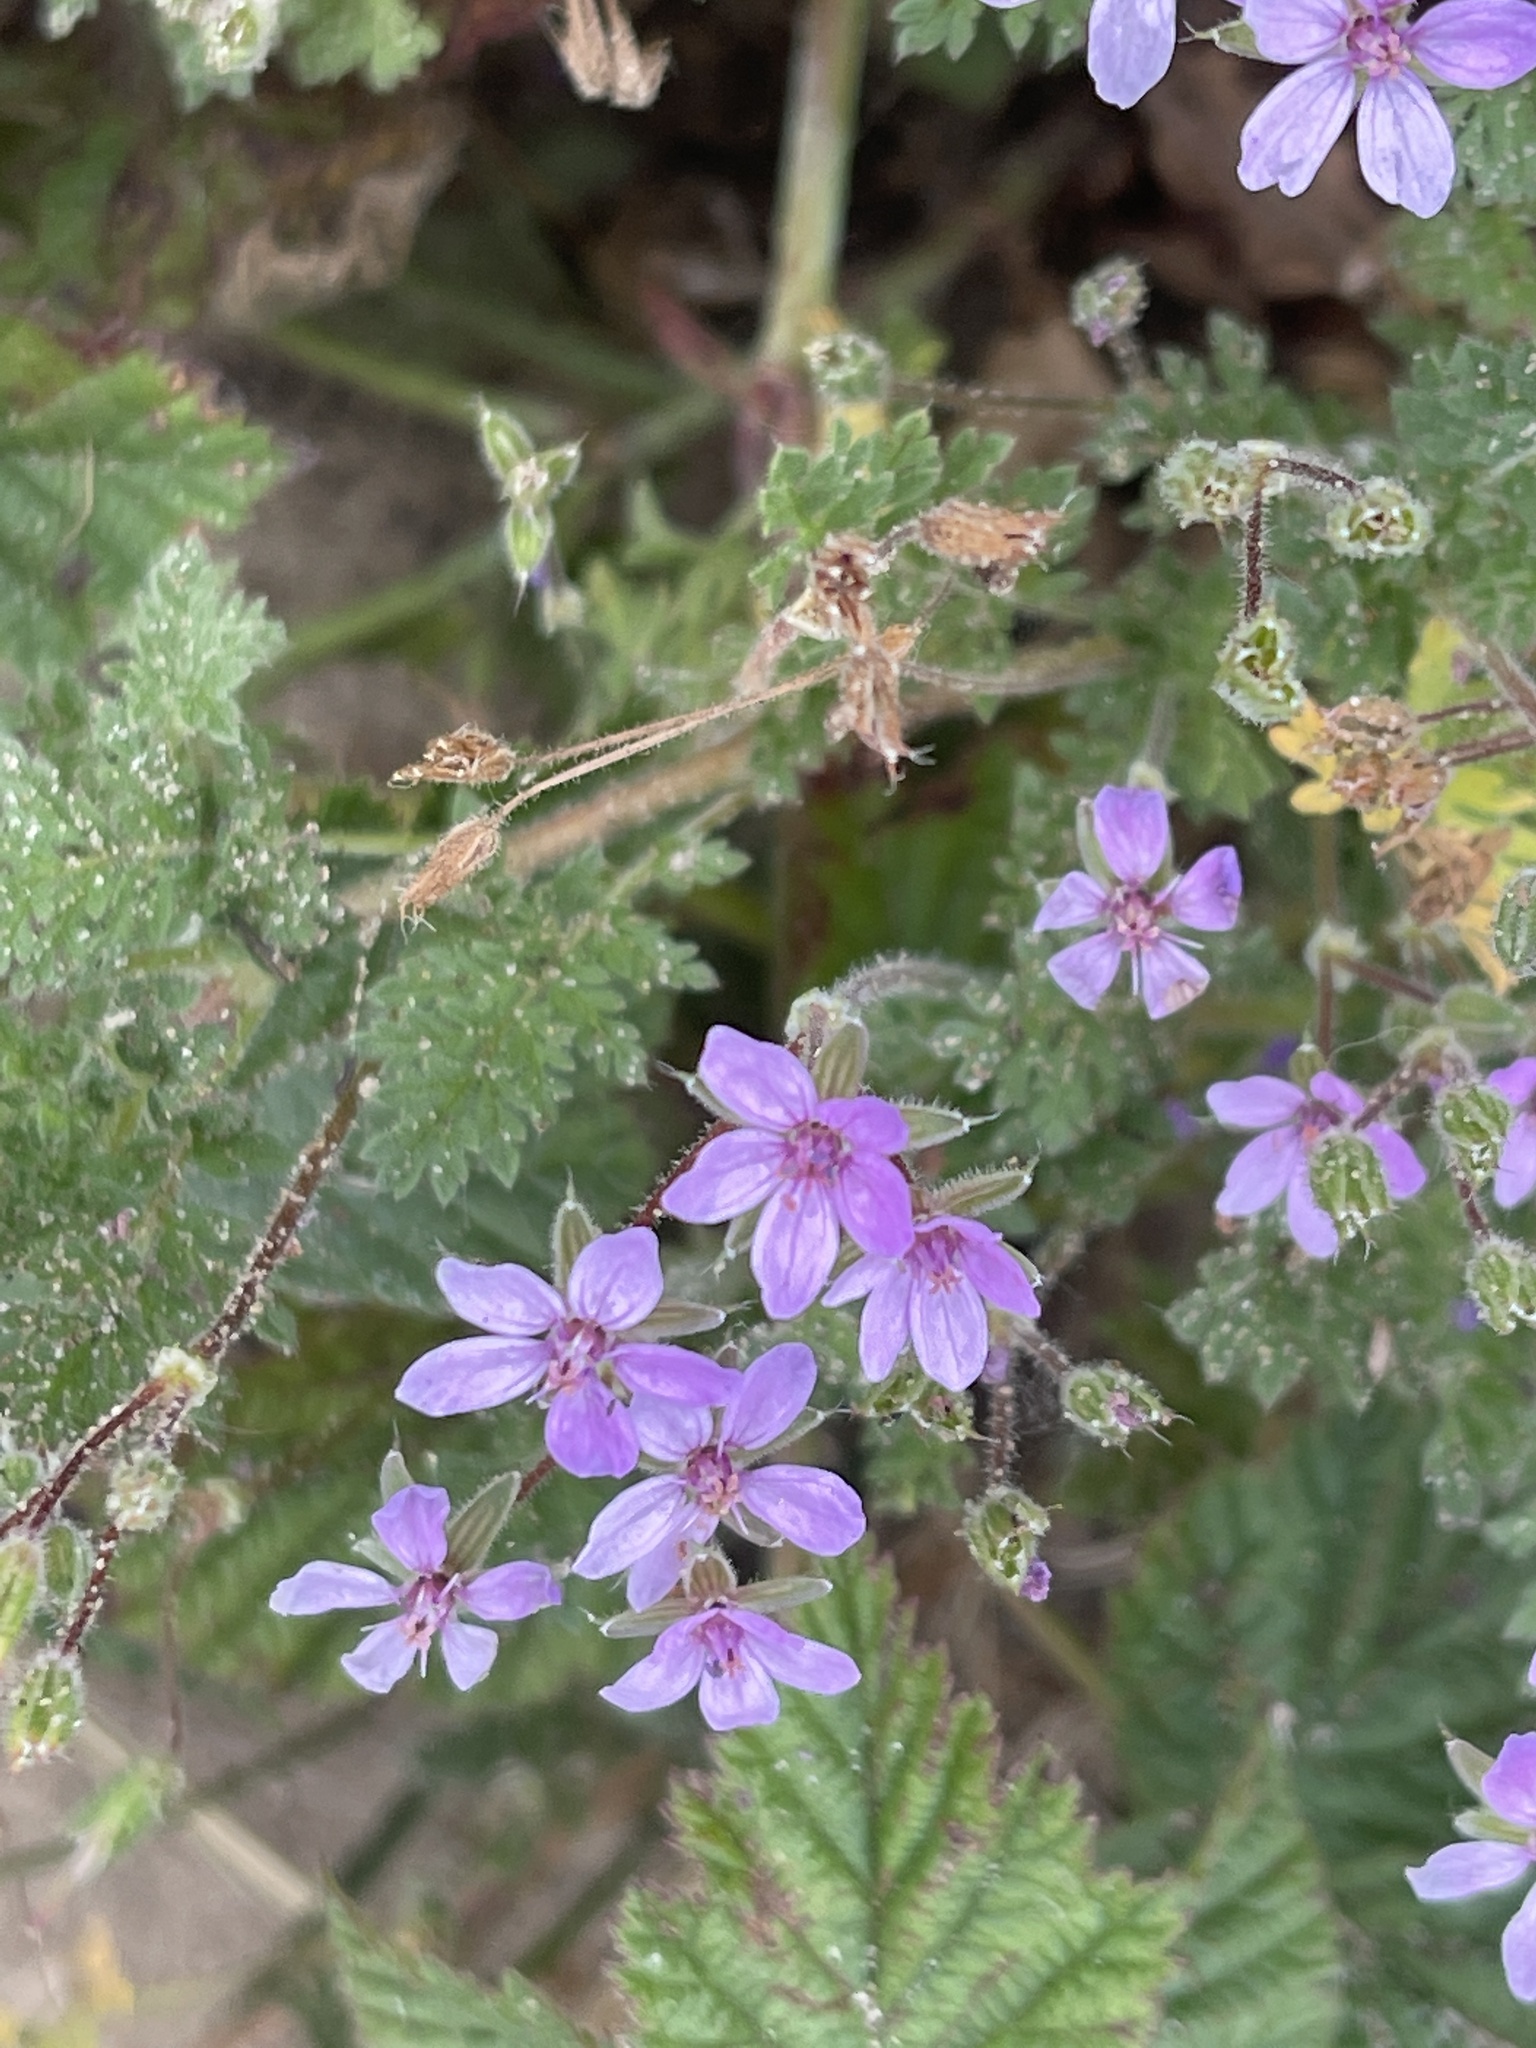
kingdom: Plantae
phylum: Tracheophyta
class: Magnoliopsida
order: Geraniales
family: Geraniaceae
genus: Erodium
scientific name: Erodium cicutarium
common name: Common stork's-bill
